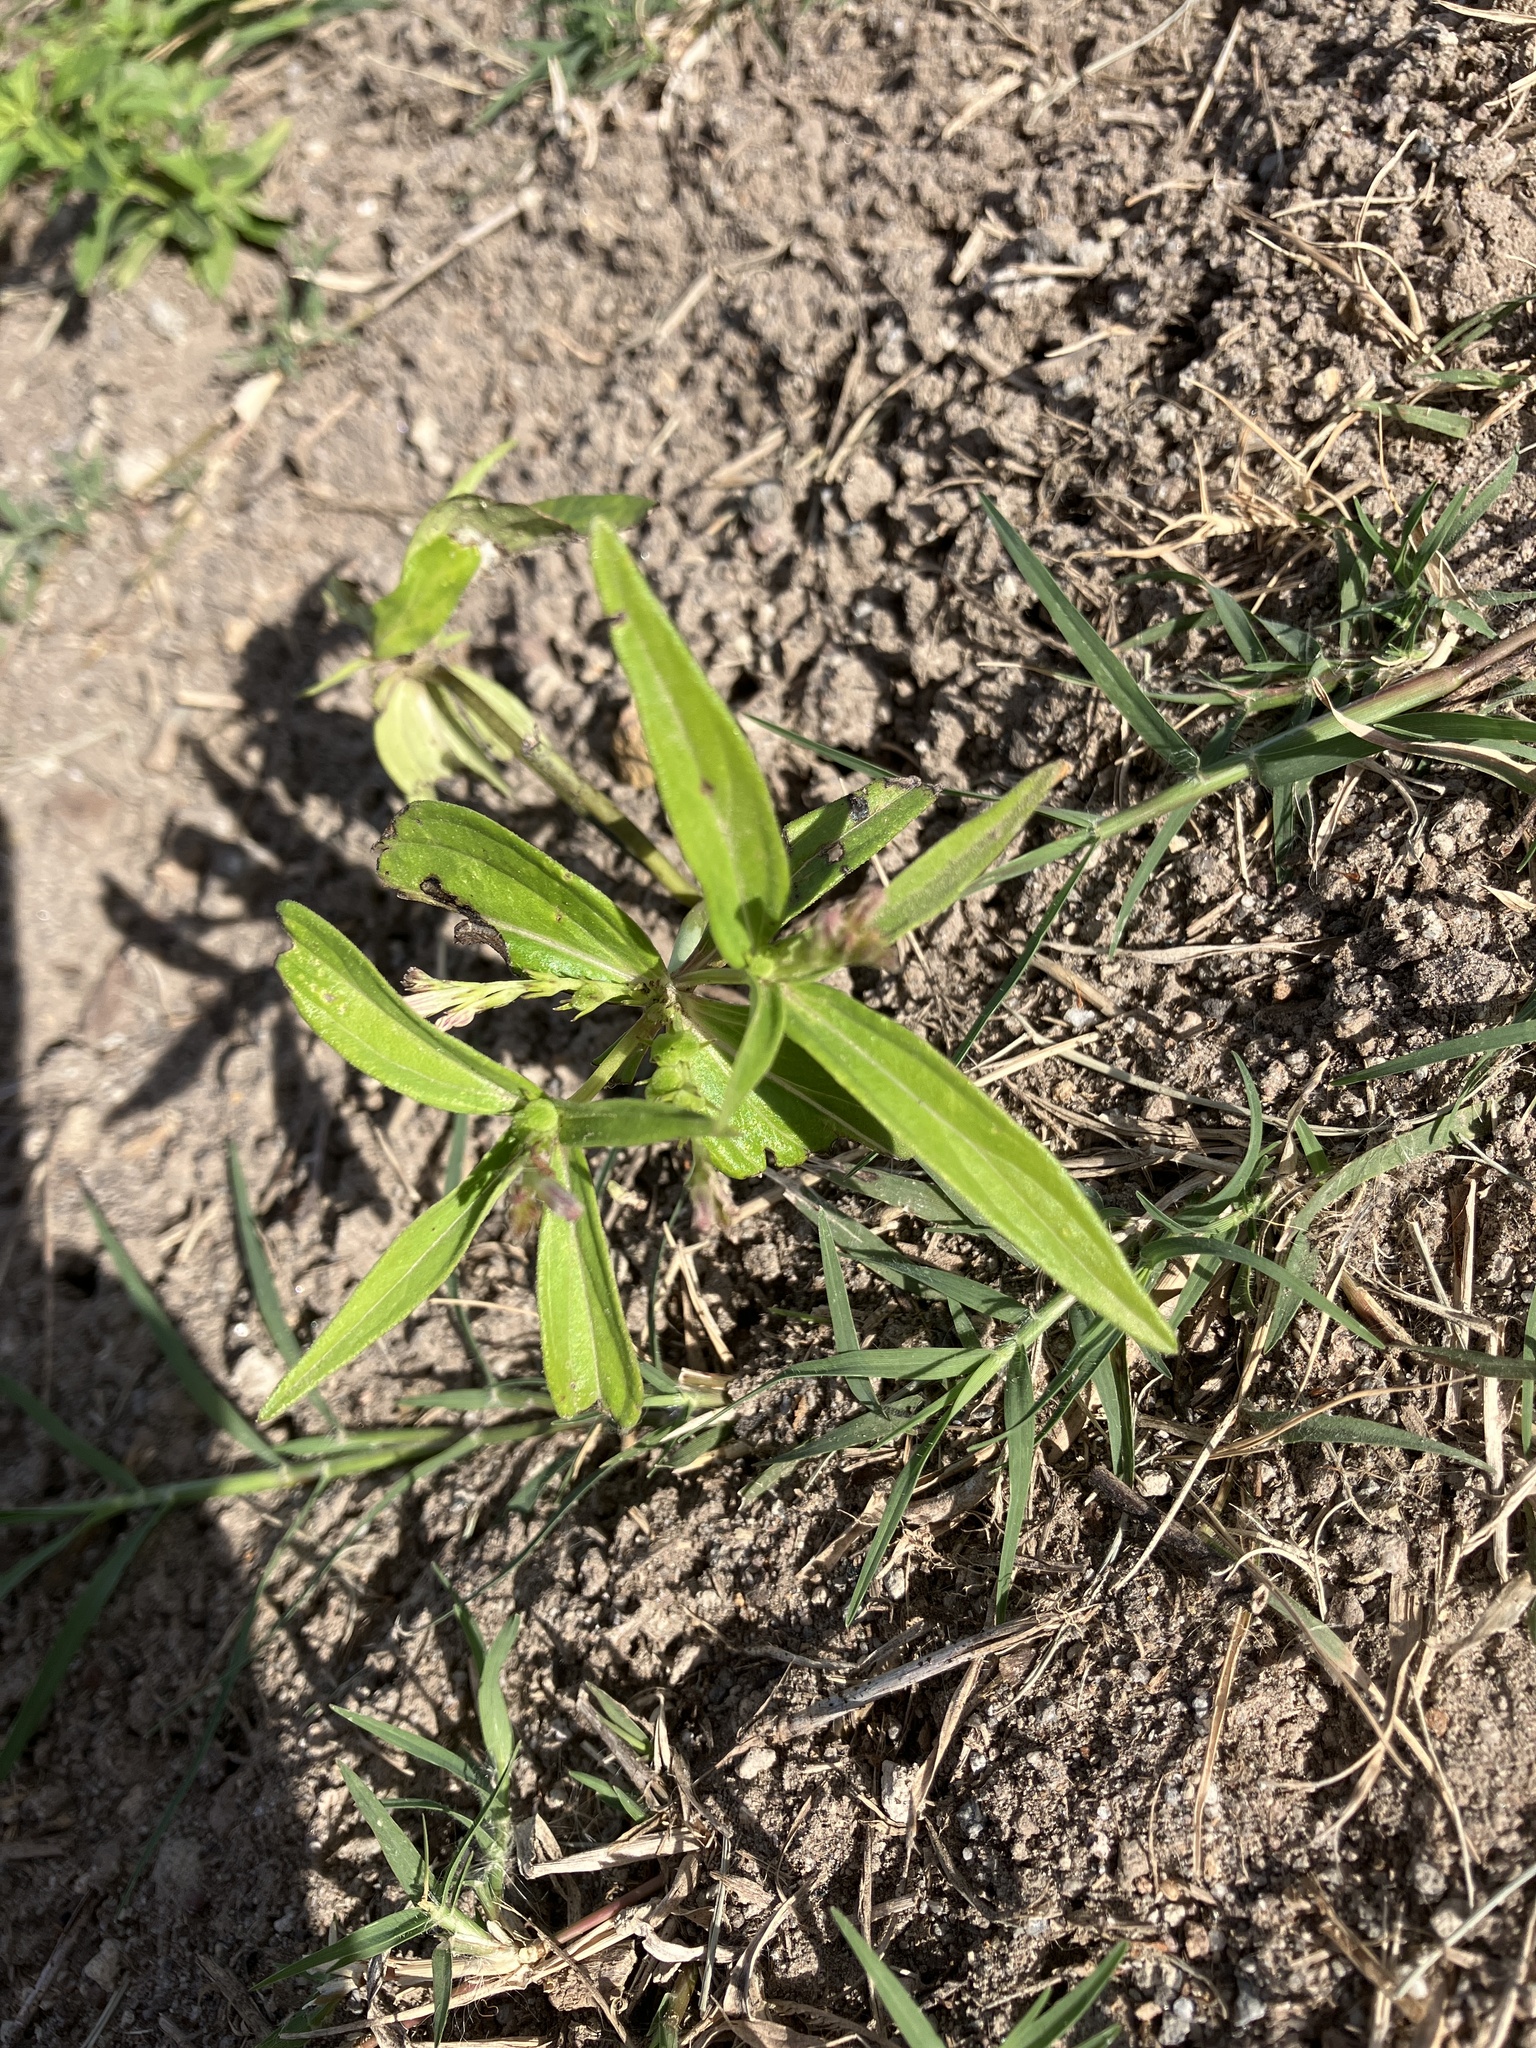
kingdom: Plantae
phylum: Tracheophyta
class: Magnoliopsida
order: Gentianales
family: Loganiaceae
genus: Spigelia
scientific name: Spigelia anthelmia
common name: West indian-pink
